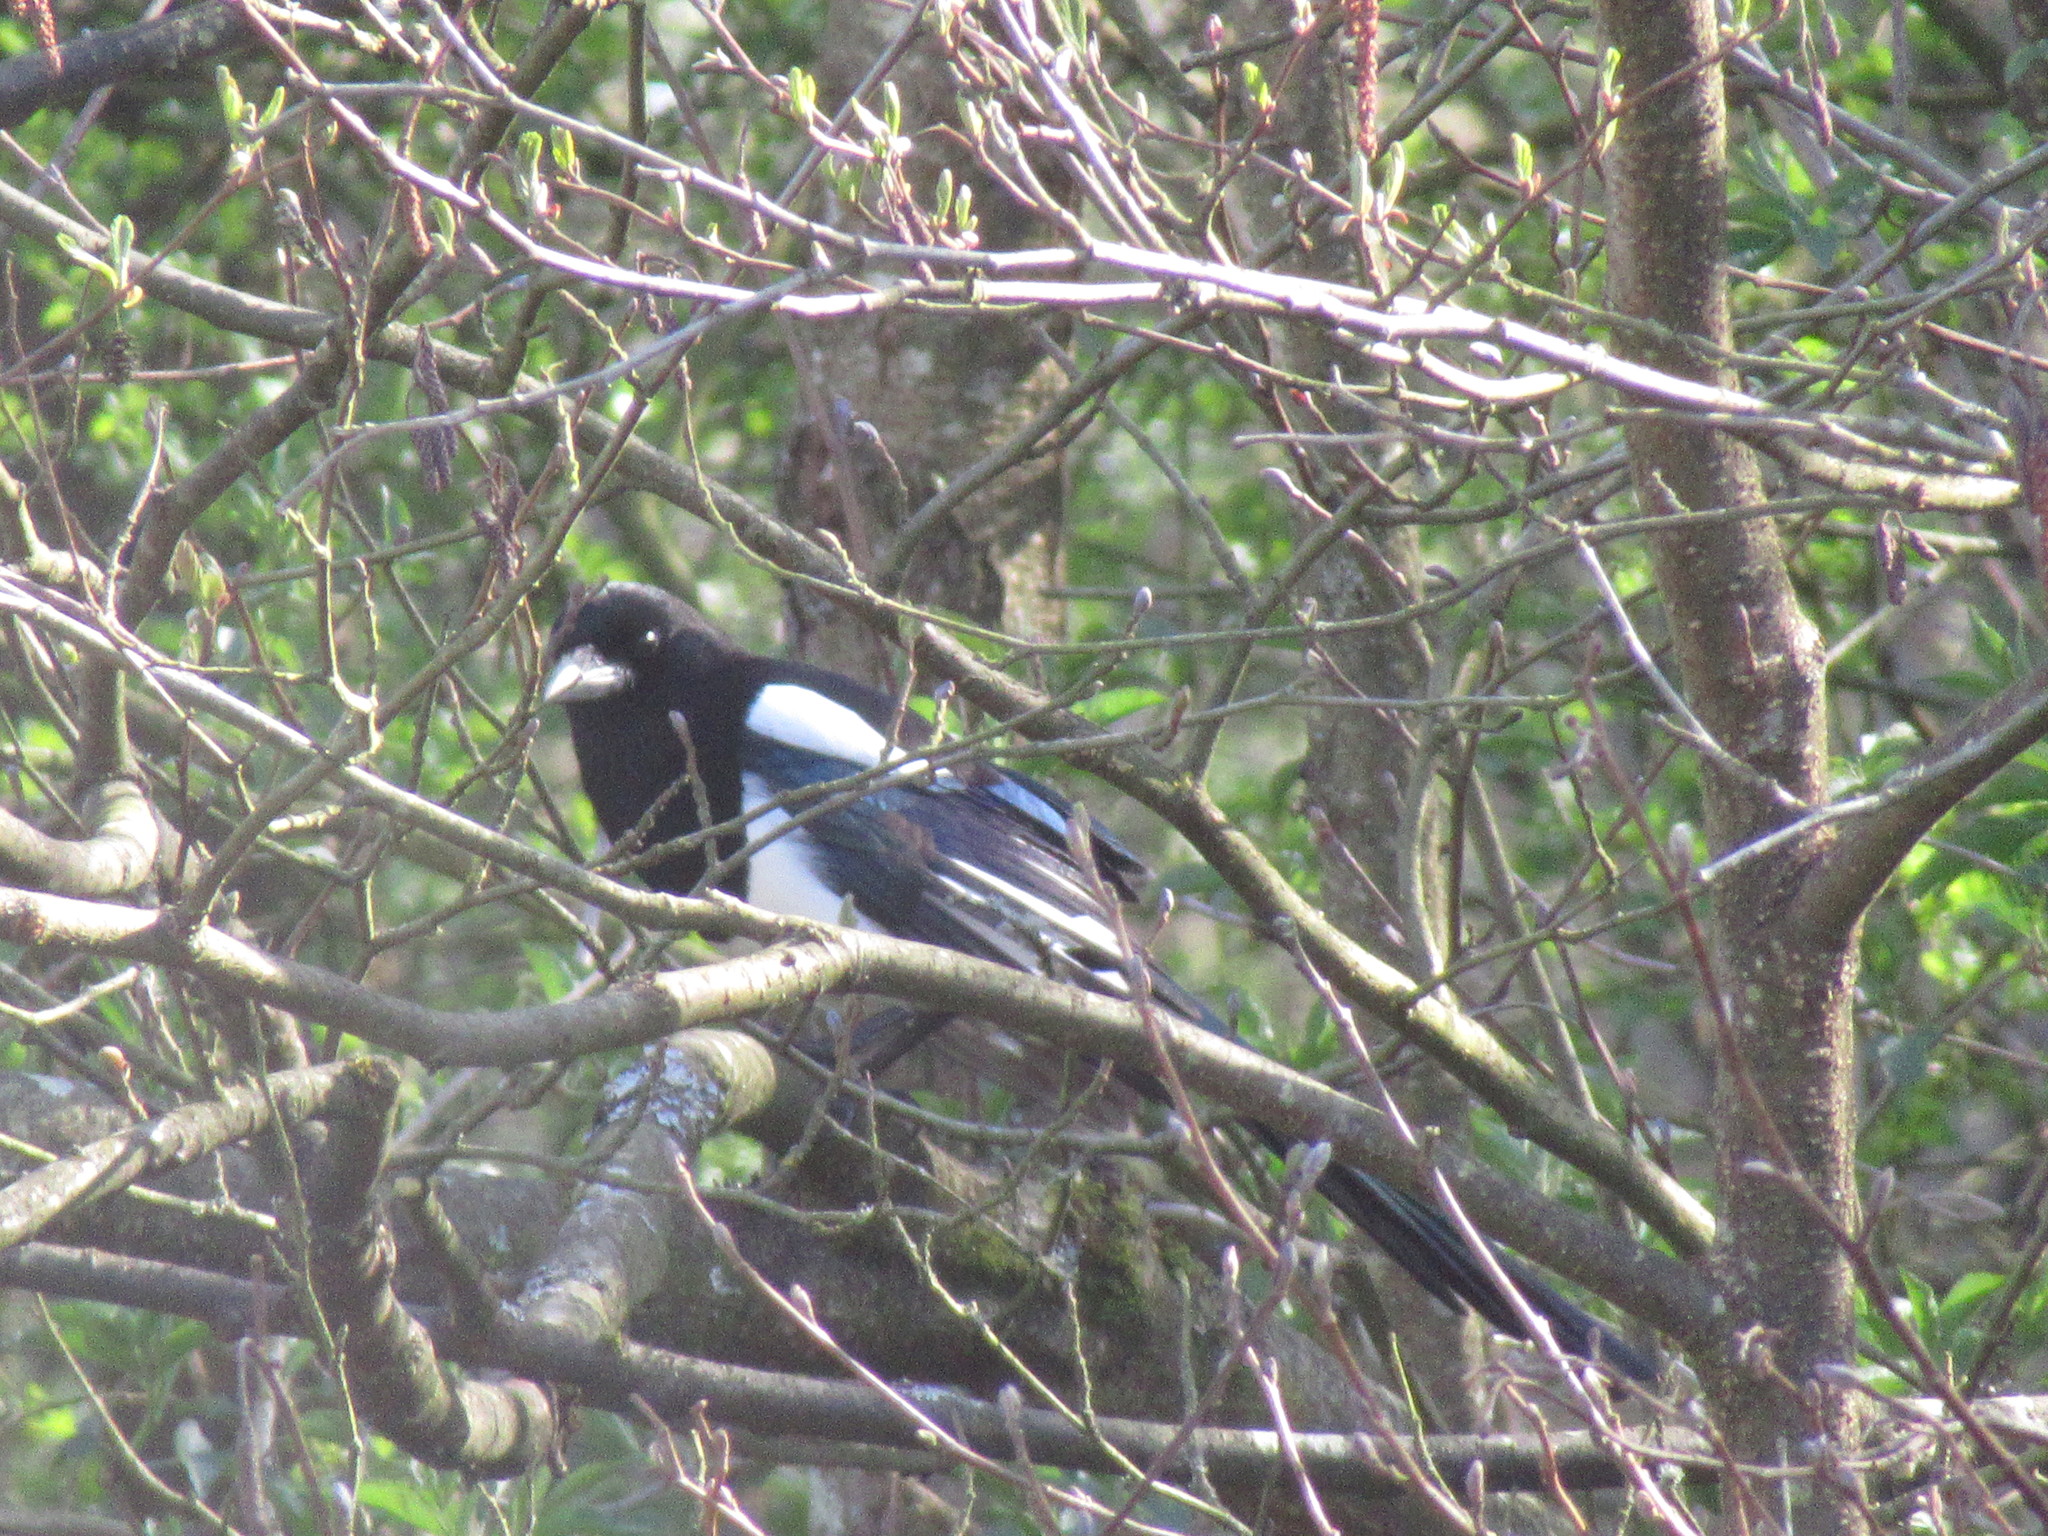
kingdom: Animalia
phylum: Chordata
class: Aves
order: Passeriformes
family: Corvidae
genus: Pica
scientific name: Pica pica
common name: Eurasian magpie
